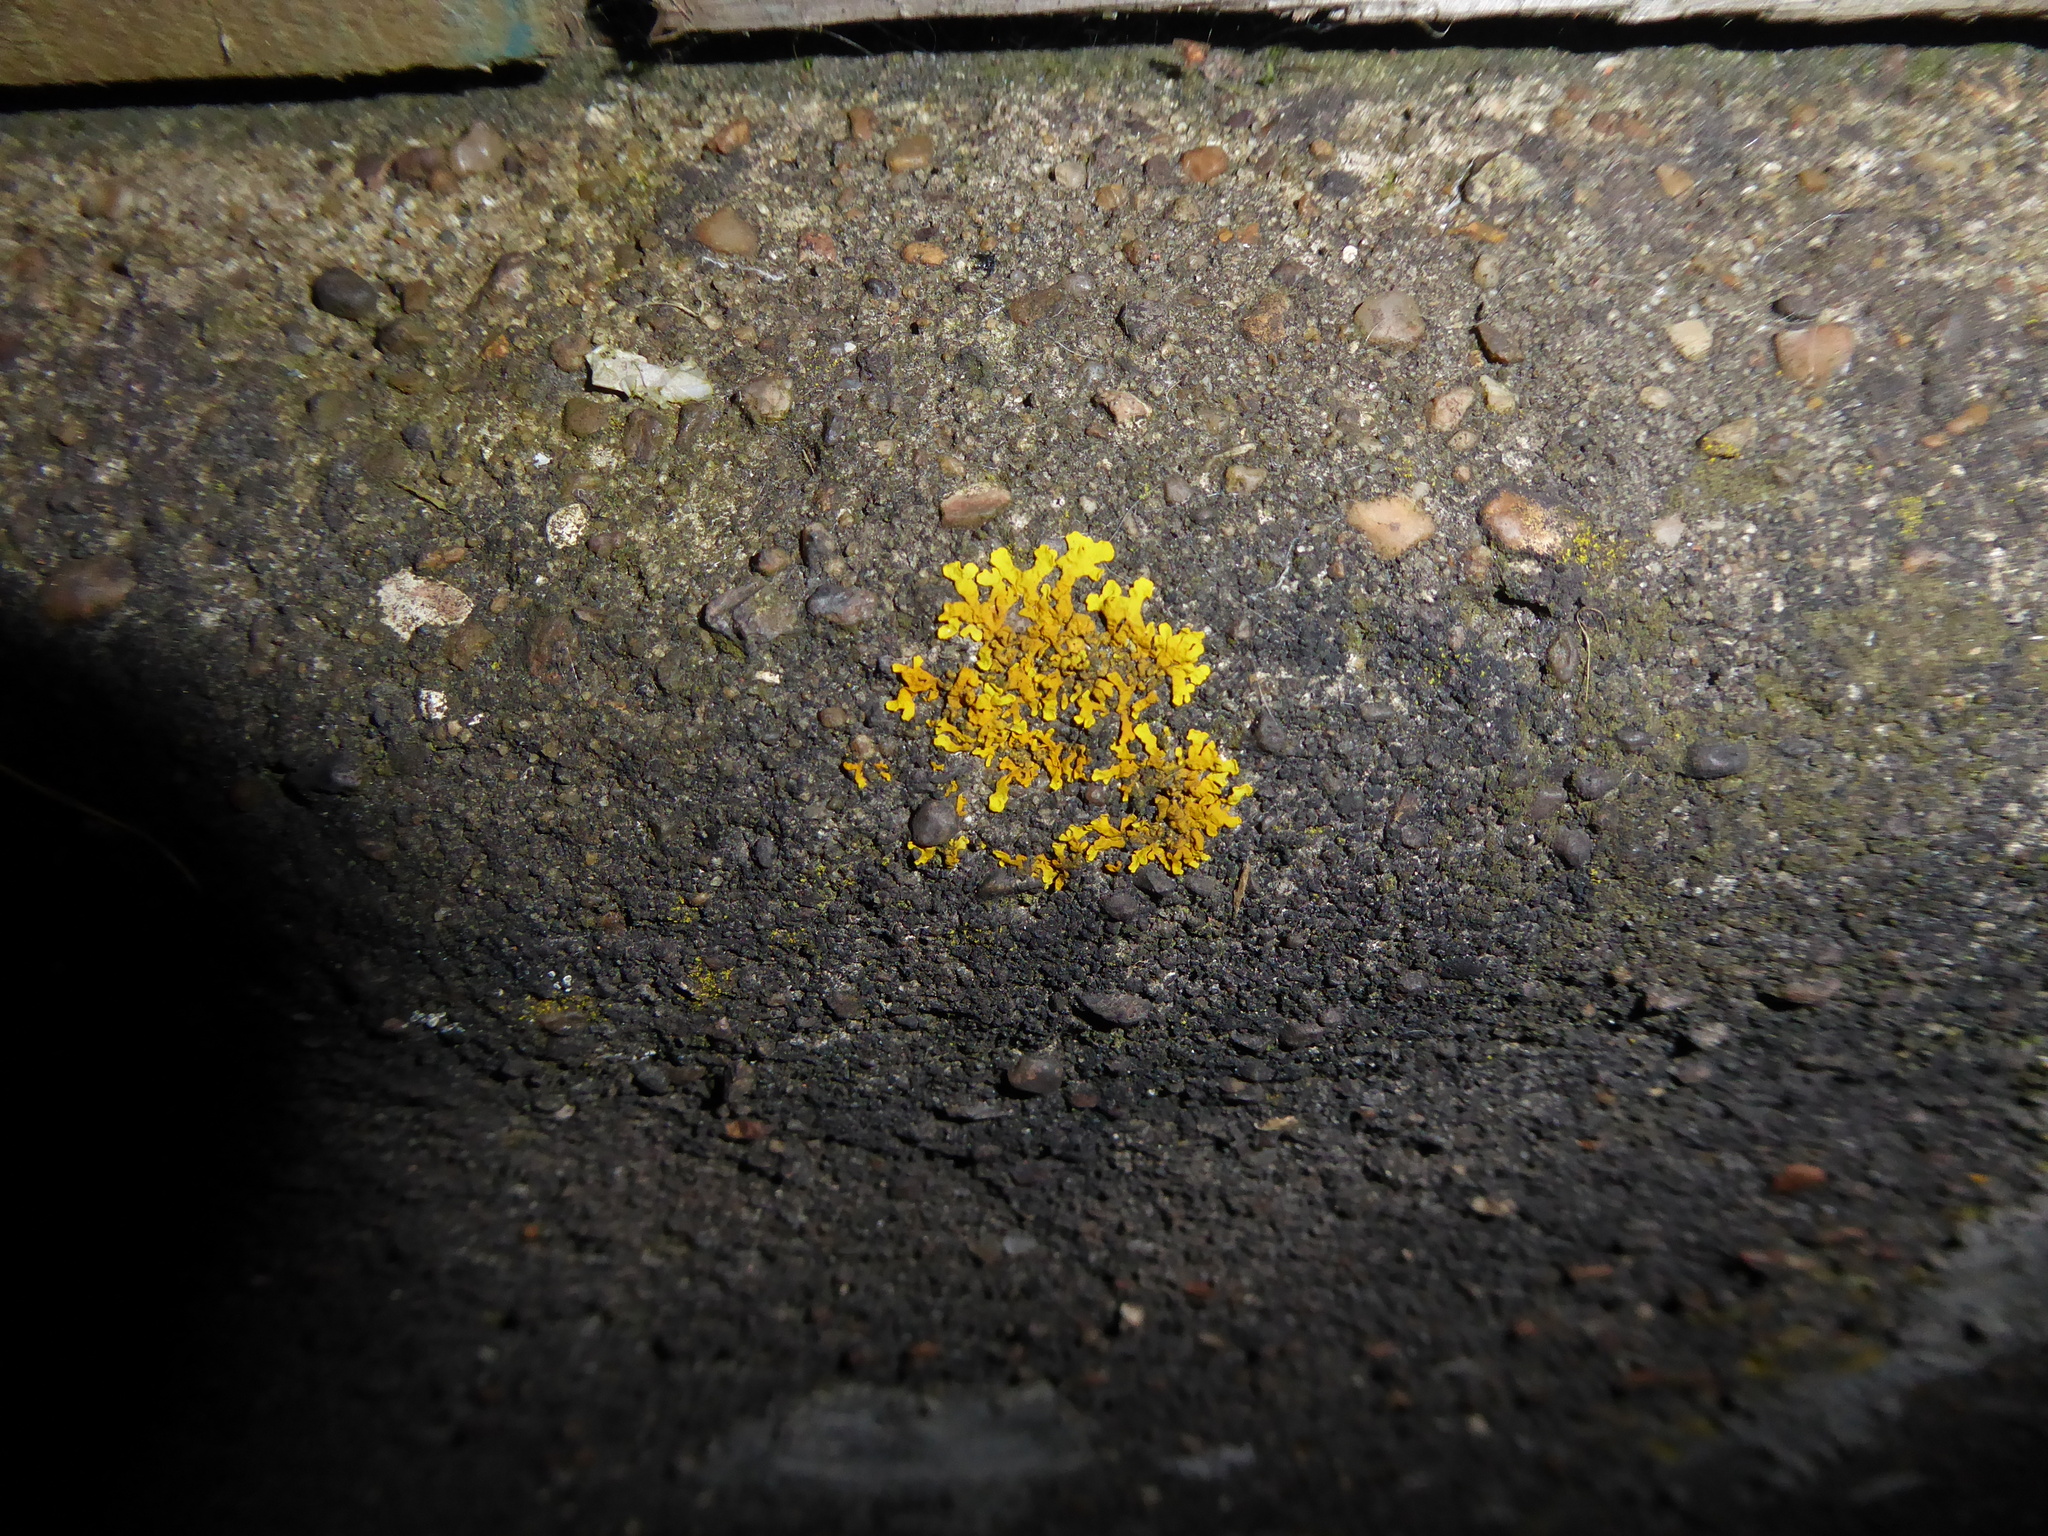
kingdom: Fungi
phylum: Ascomycota
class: Lecanoromycetes
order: Teloschistales
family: Teloschistaceae
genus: Xanthoria
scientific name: Xanthoria
